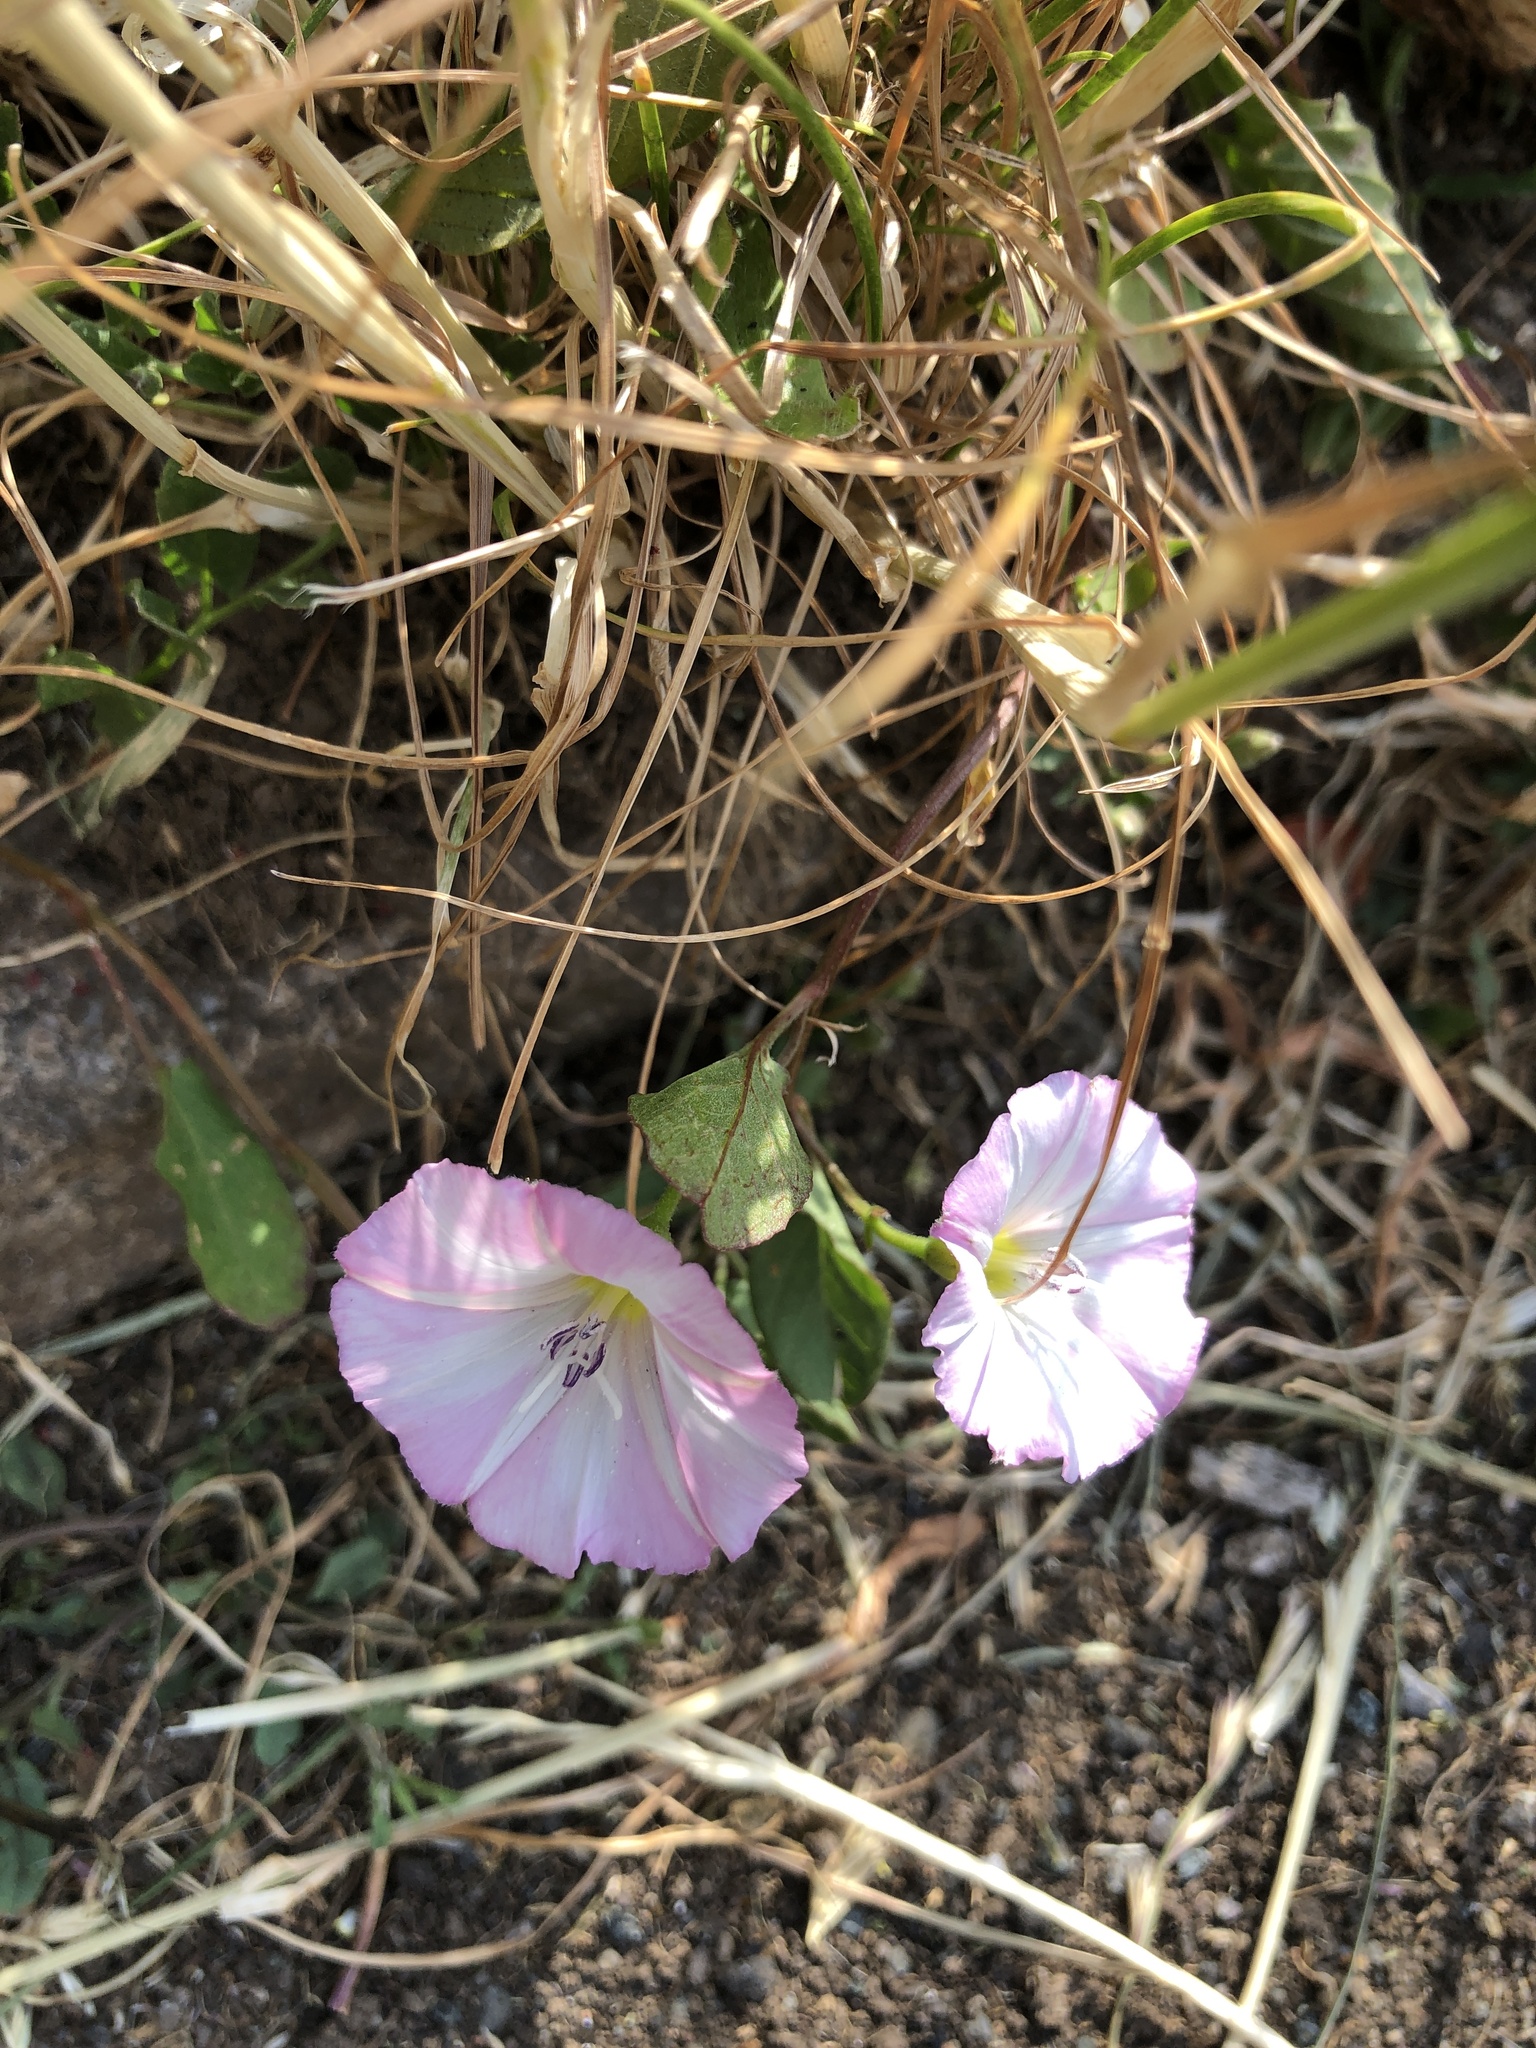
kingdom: Plantae
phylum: Tracheophyta
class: Magnoliopsida
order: Solanales
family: Convolvulaceae
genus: Convolvulus
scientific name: Convolvulus arvensis
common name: Field bindweed
